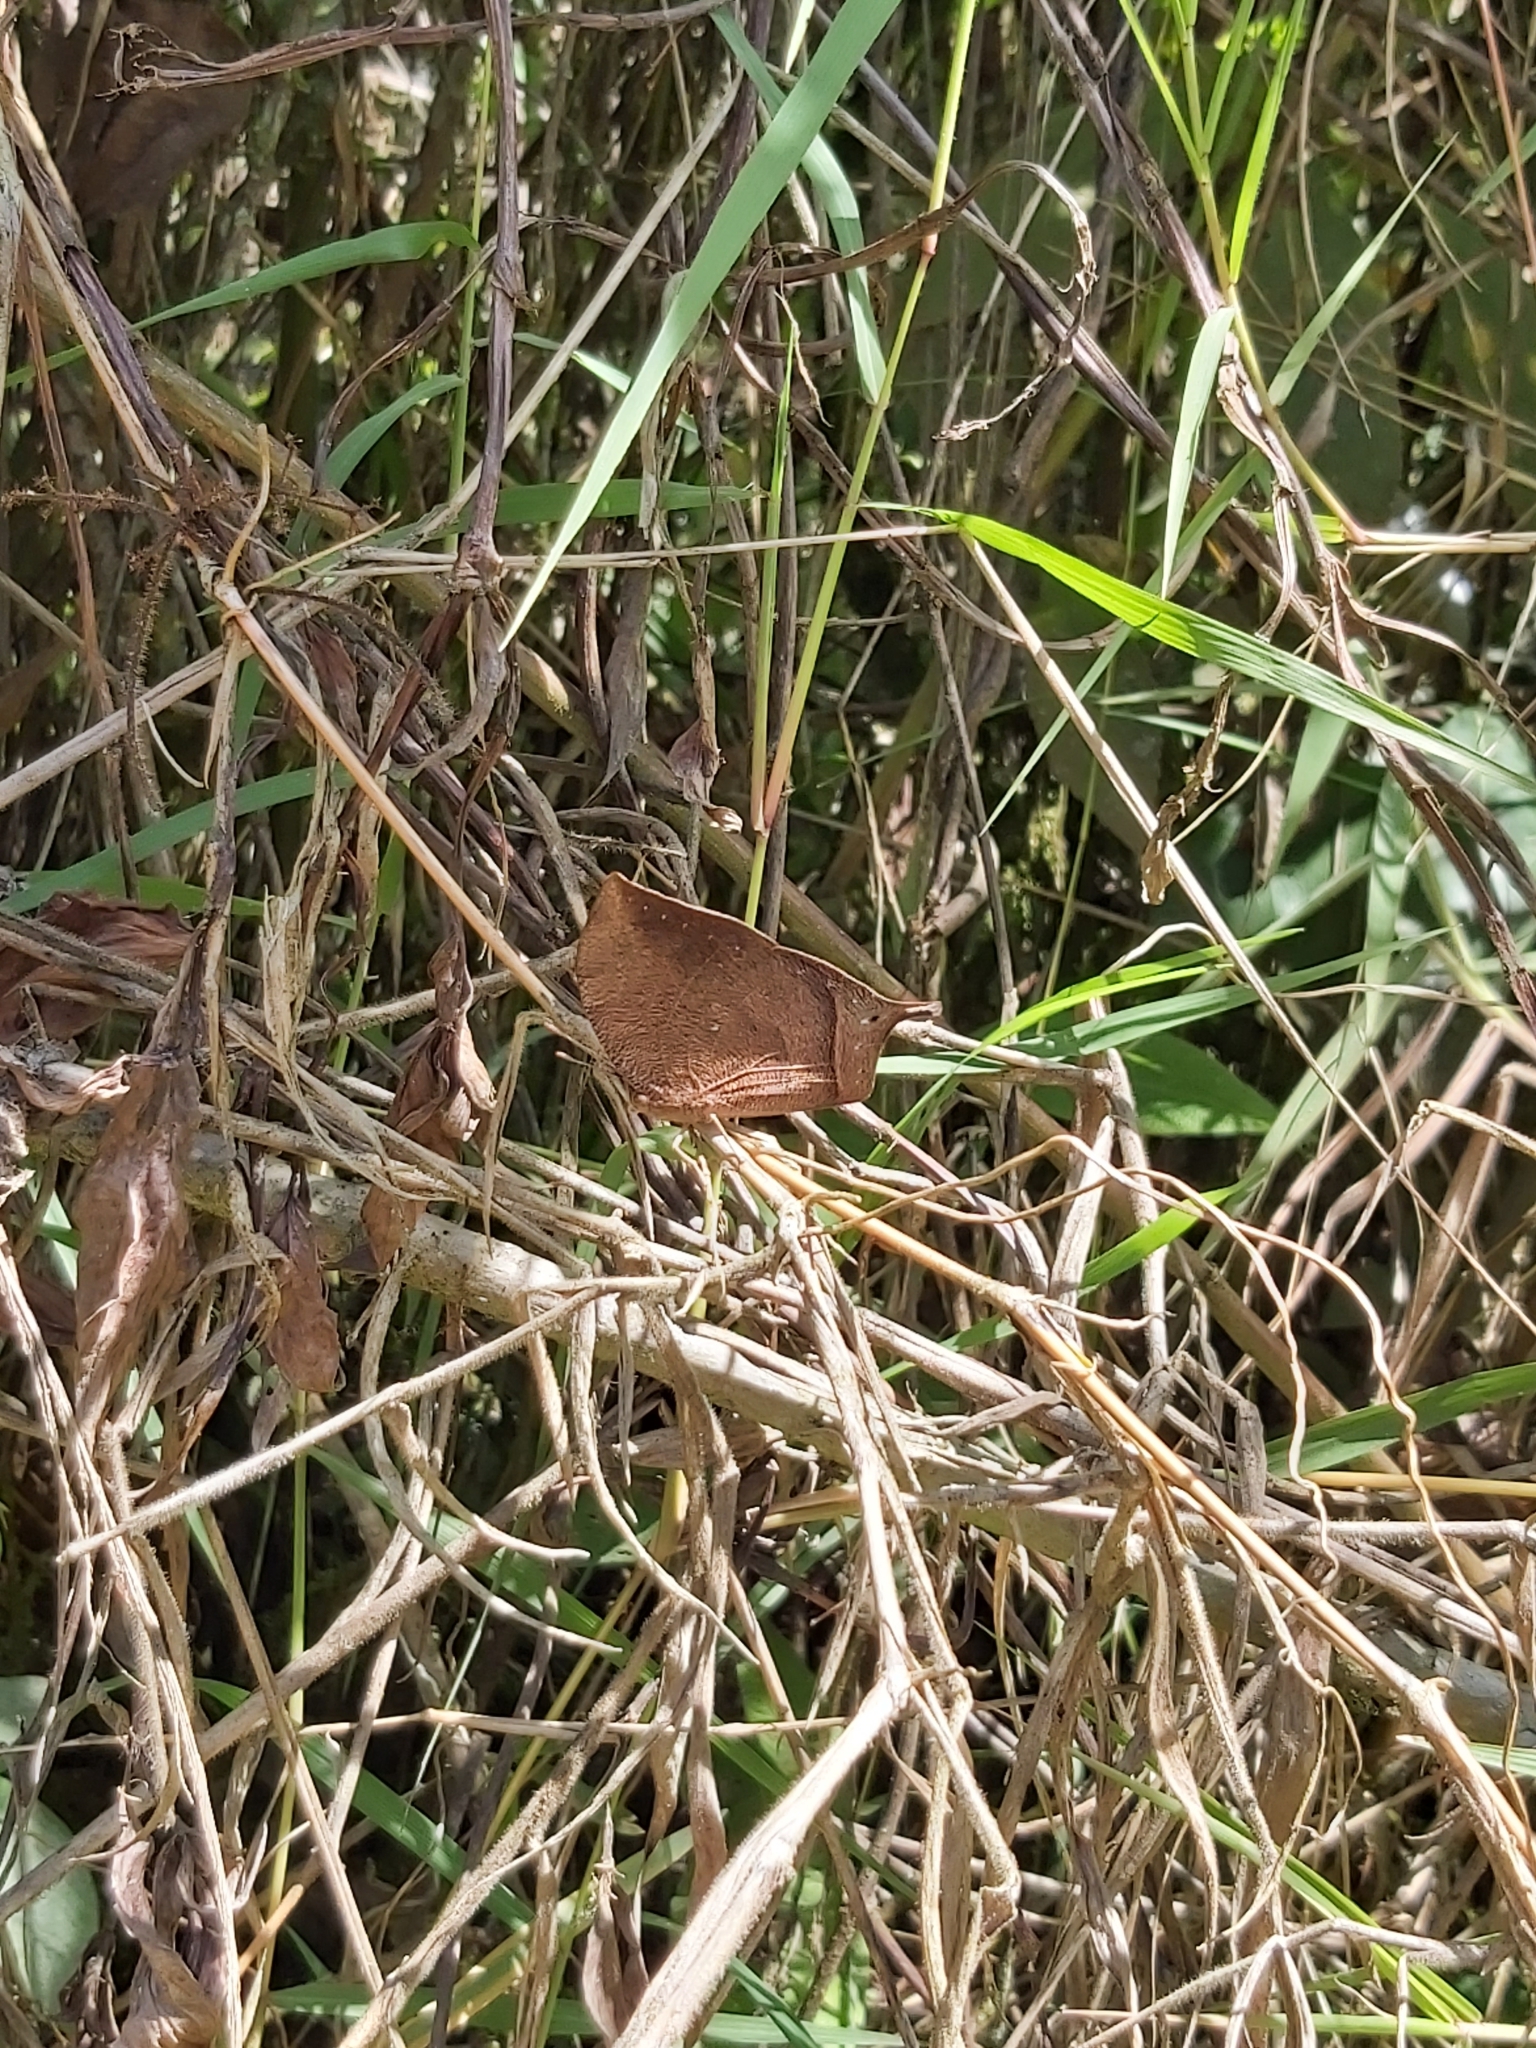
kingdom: Animalia
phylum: Arthropoda
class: Insecta
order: Lepidoptera
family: Nymphalidae
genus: Fountainea
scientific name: Fountainea
